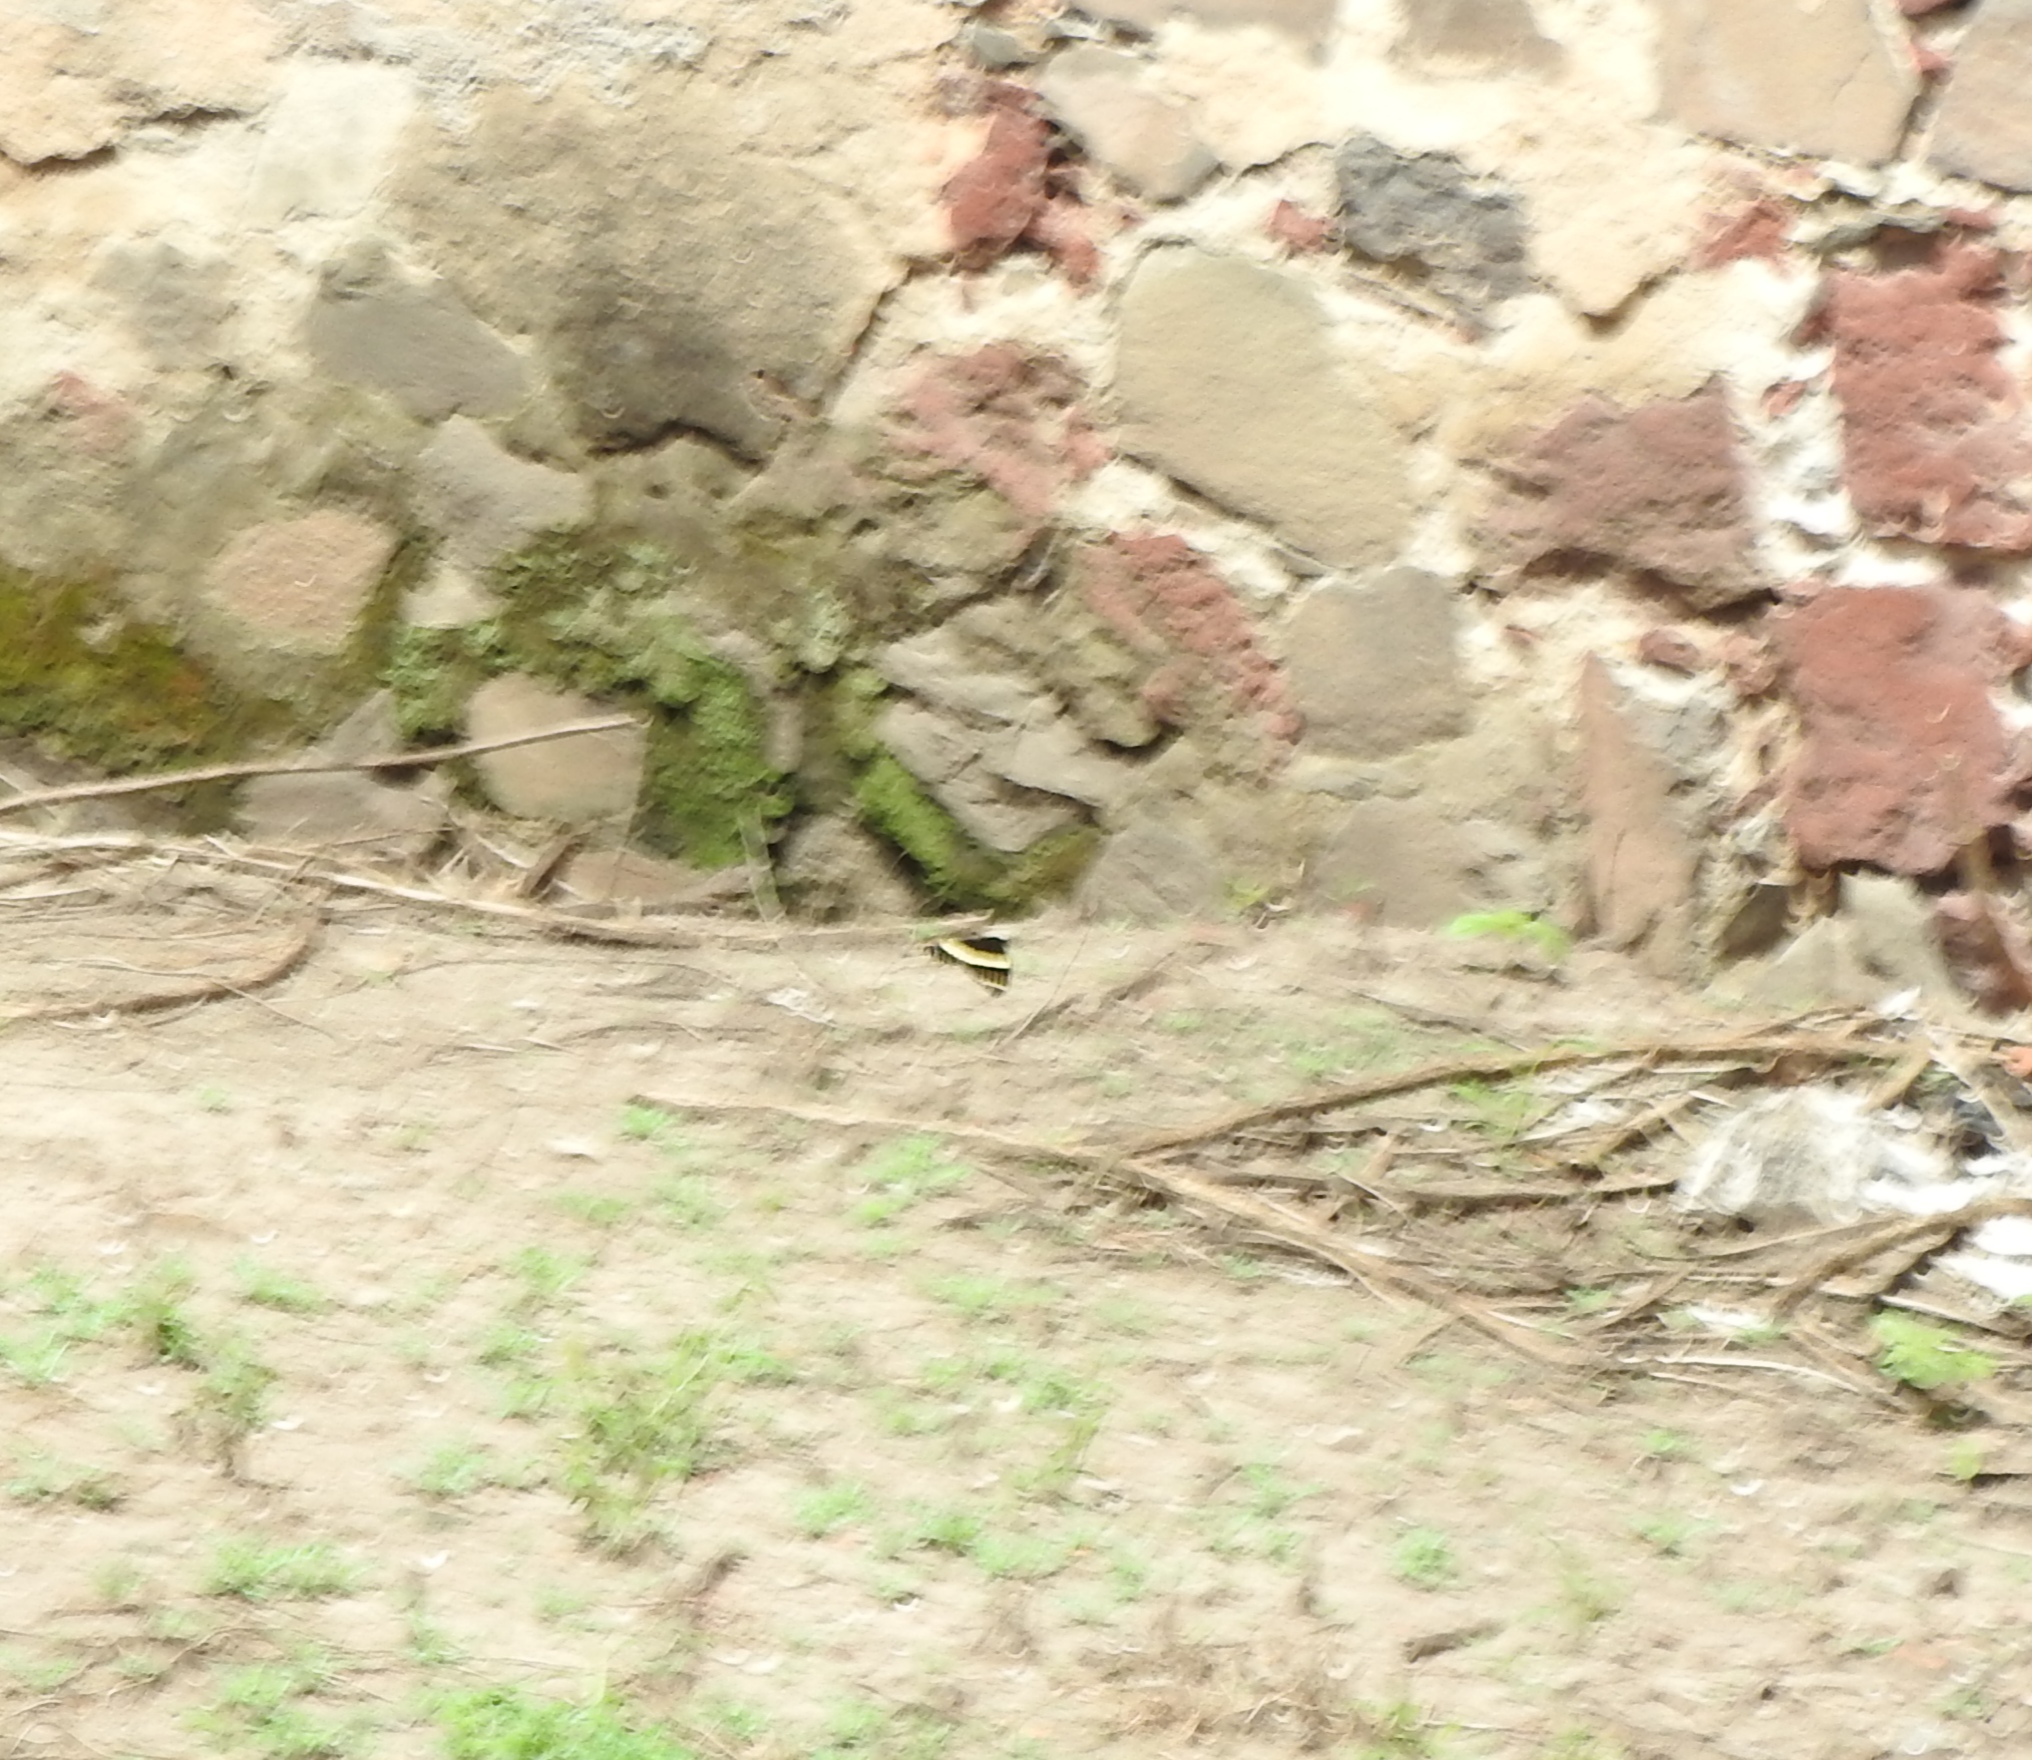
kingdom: Animalia
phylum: Arthropoda
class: Insecta
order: Lepidoptera
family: Papilionidae
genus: Papilio
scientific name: Papilio garamas
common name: Magnificent swallowtail
